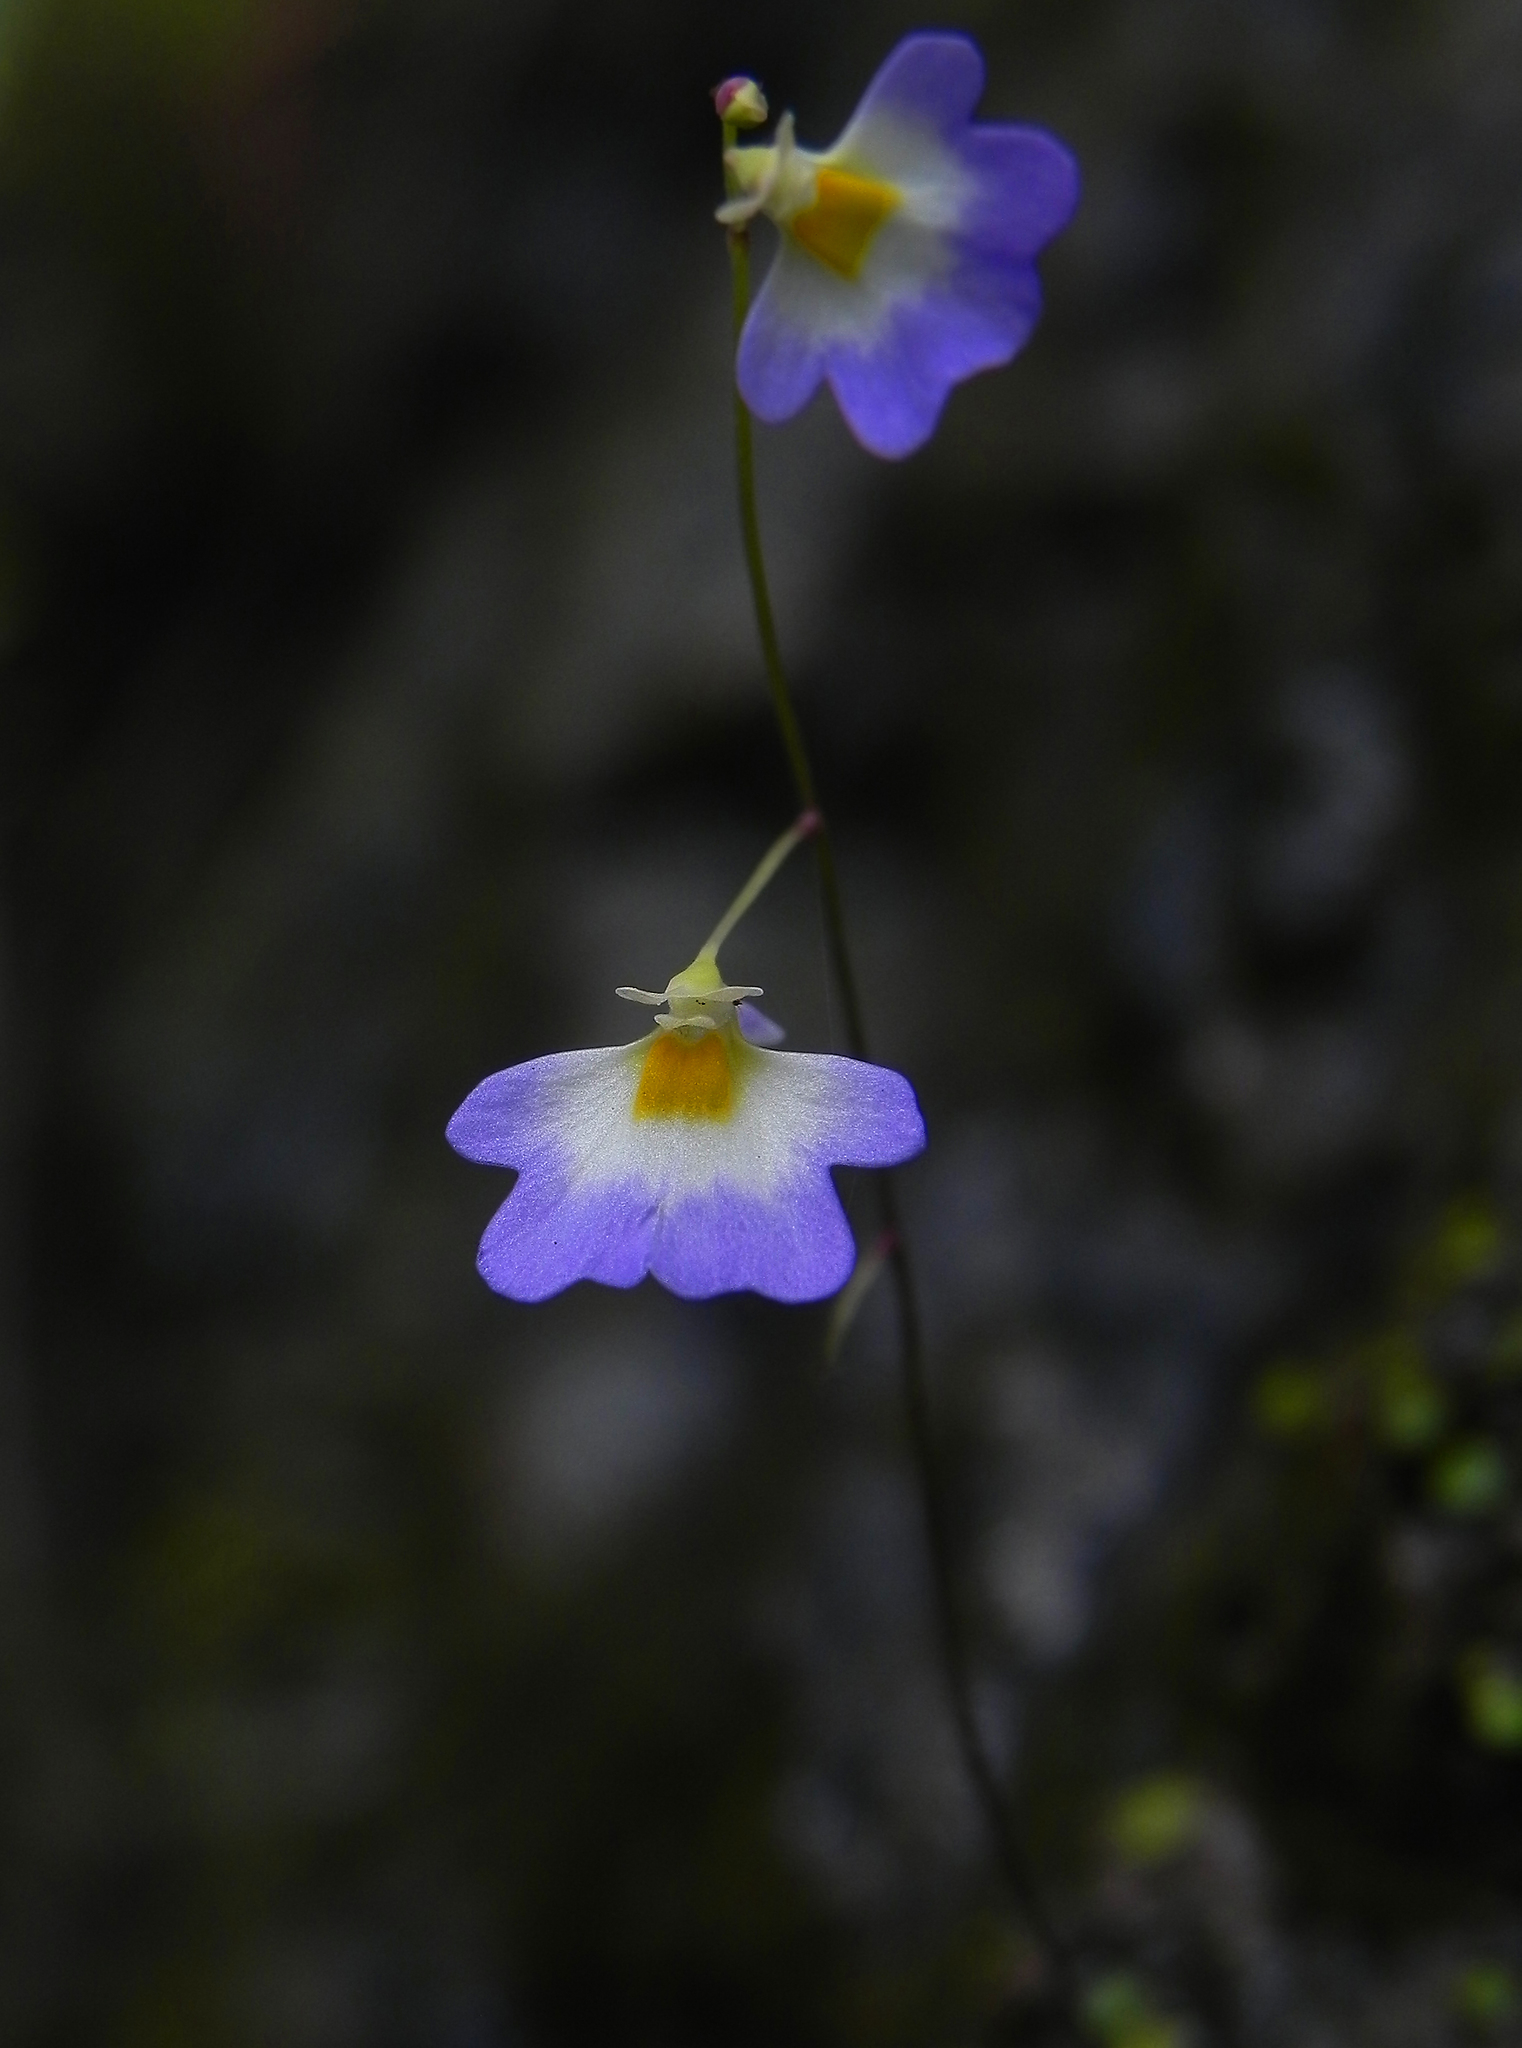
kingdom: Plantae
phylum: Tracheophyta
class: Magnoliopsida
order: Lamiales
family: Lentibulariaceae
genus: Utricularia
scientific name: Utricularia striatula
